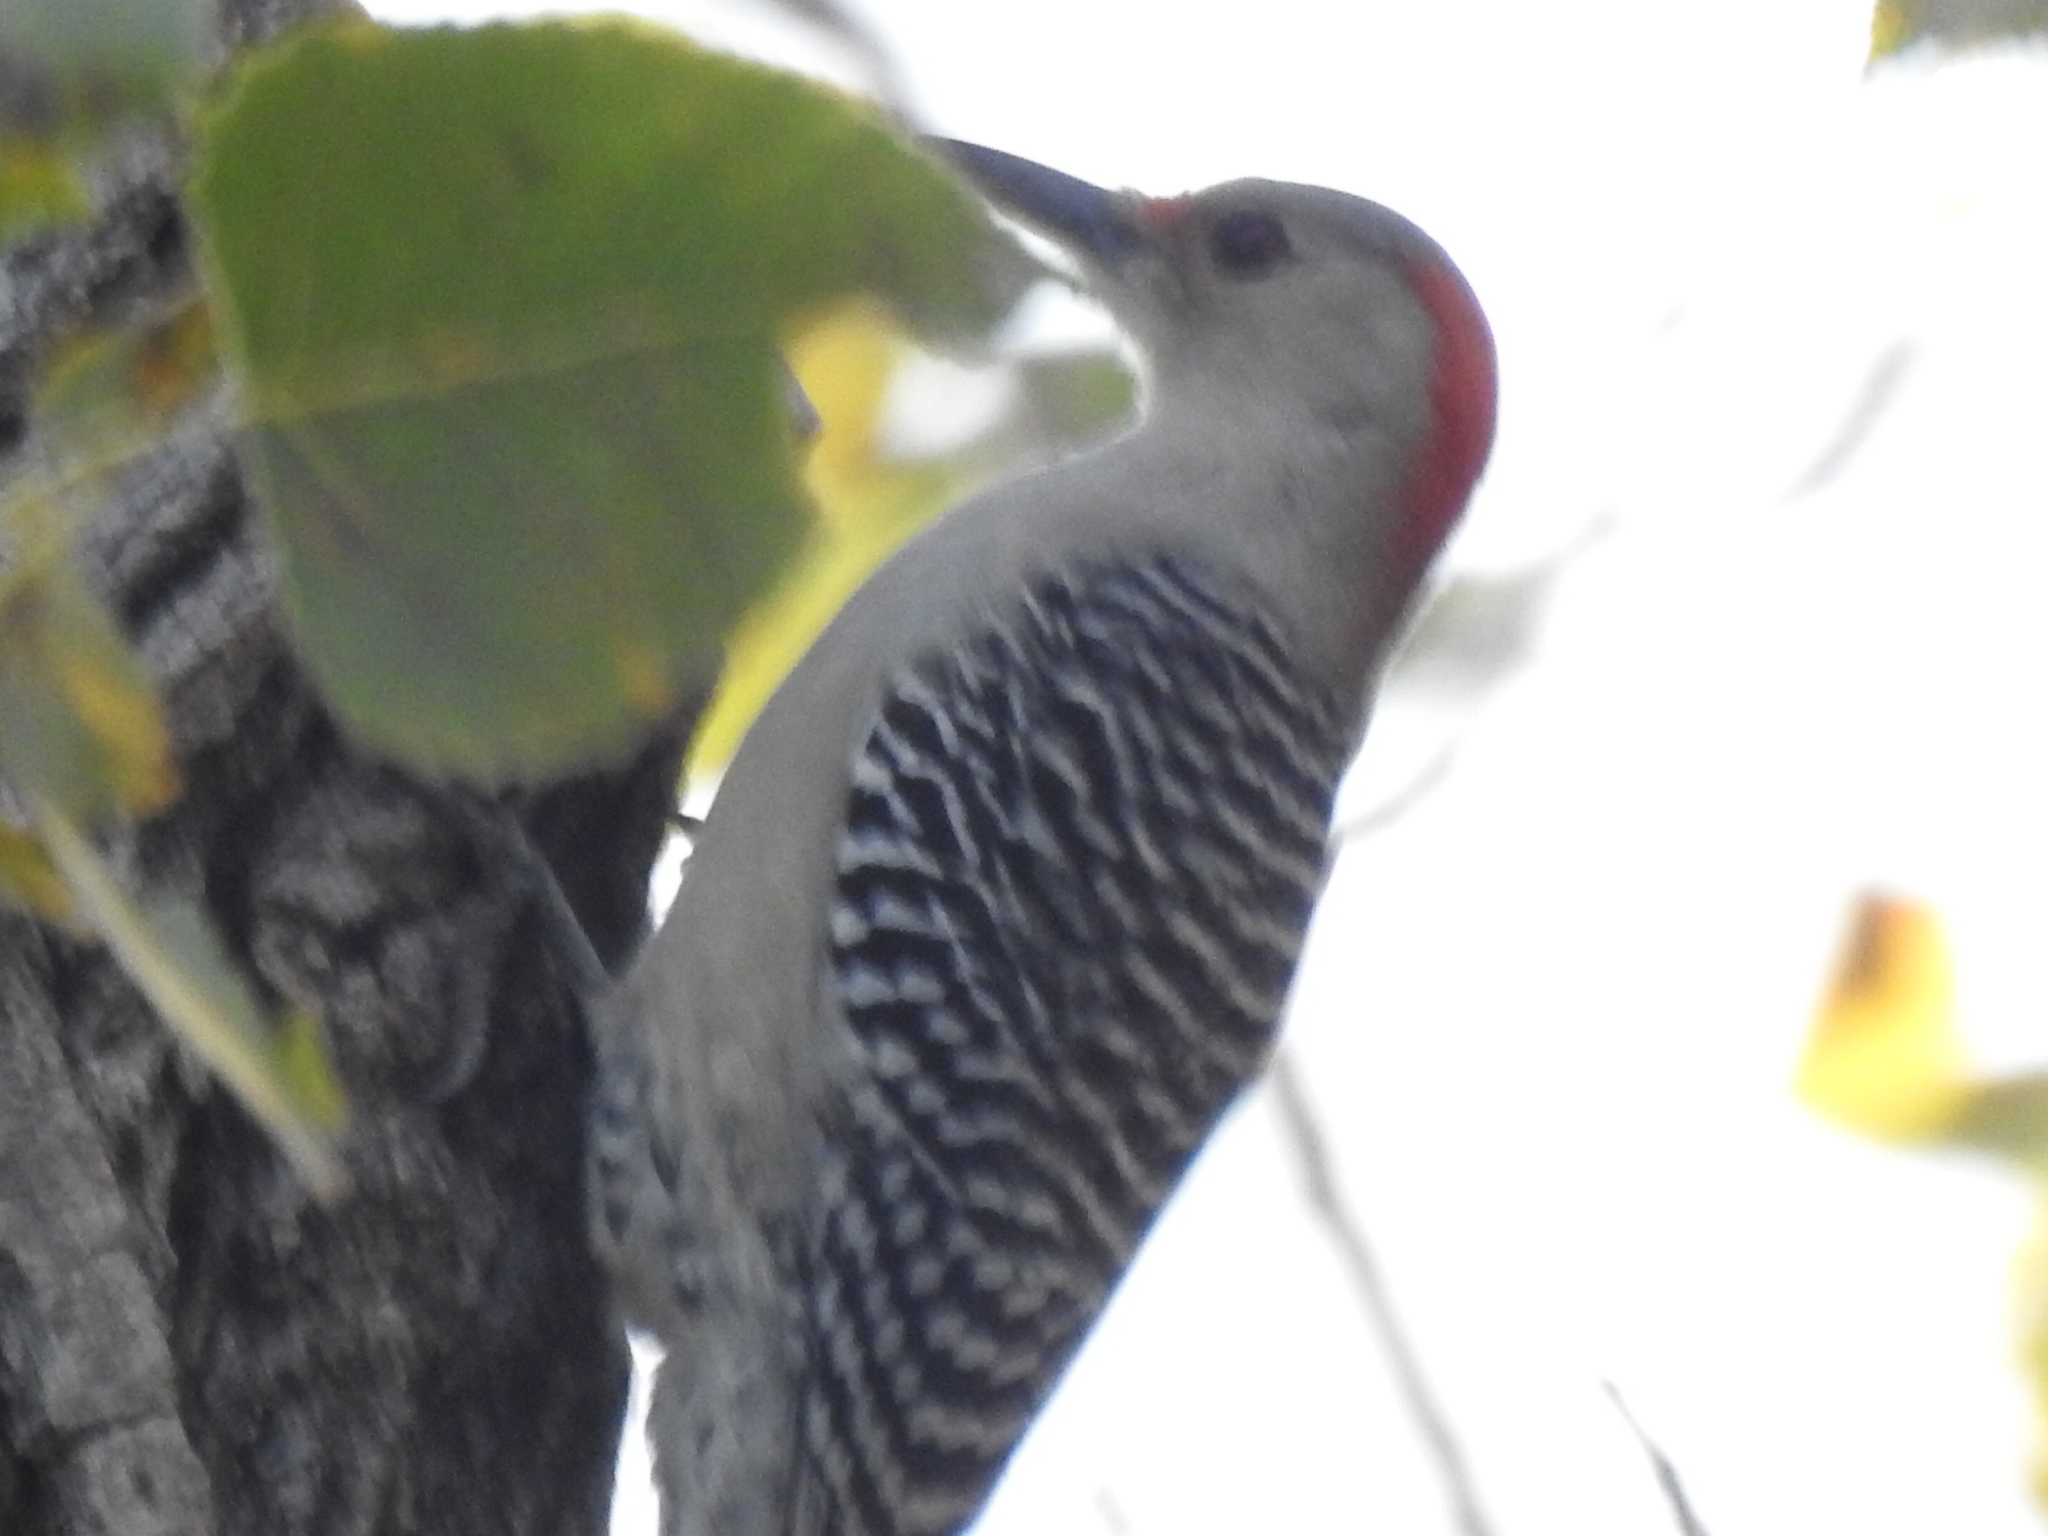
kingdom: Animalia
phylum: Chordata
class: Aves
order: Piciformes
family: Picidae
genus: Melanerpes
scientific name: Melanerpes carolinus
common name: Red-bellied woodpecker
